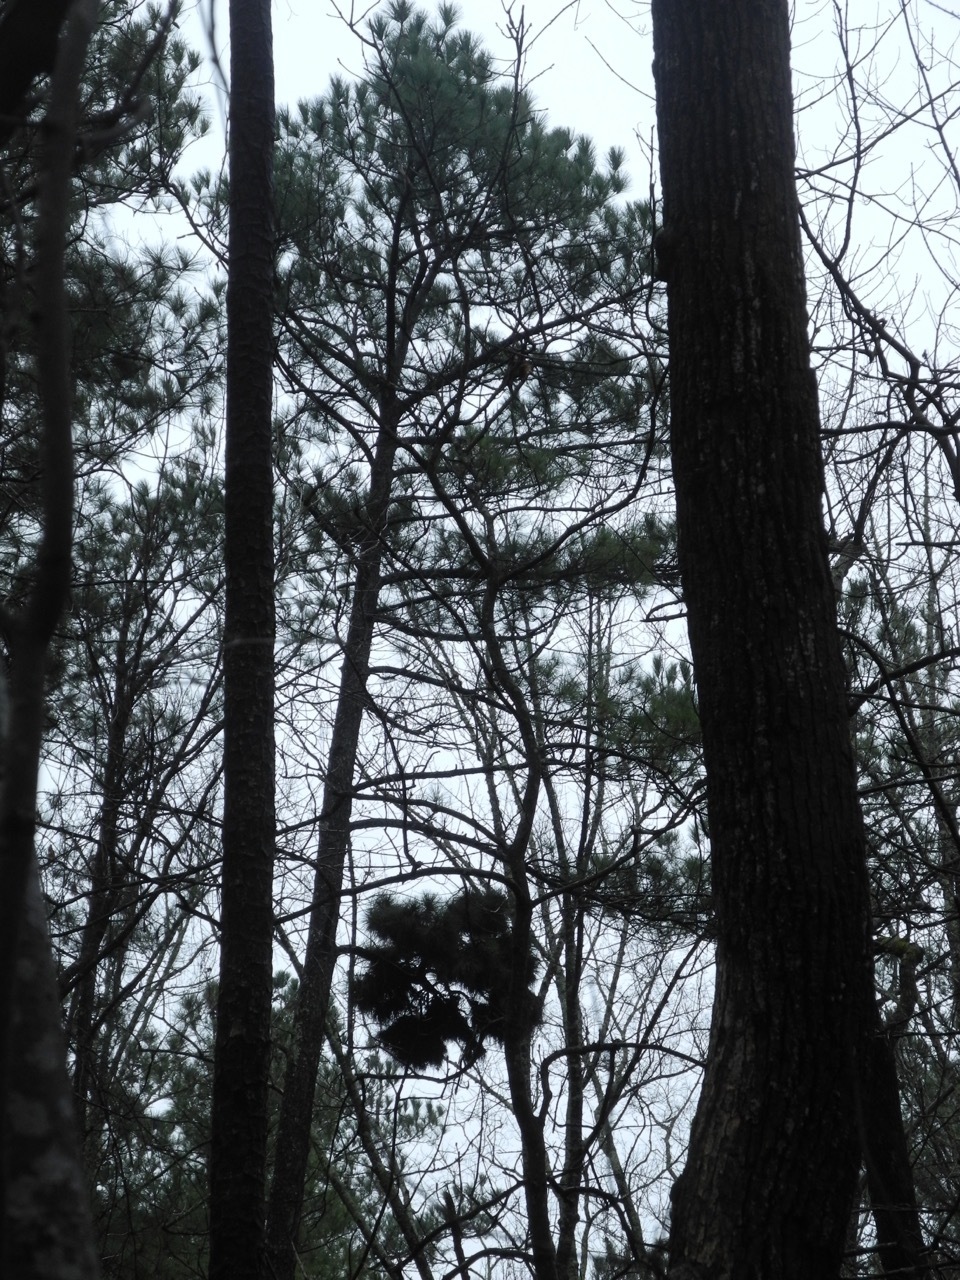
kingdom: Plantae
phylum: Tracheophyta
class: Pinopsida
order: Pinales
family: Pinaceae
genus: Pinus
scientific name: Pinus taeda
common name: Loblolly pine
